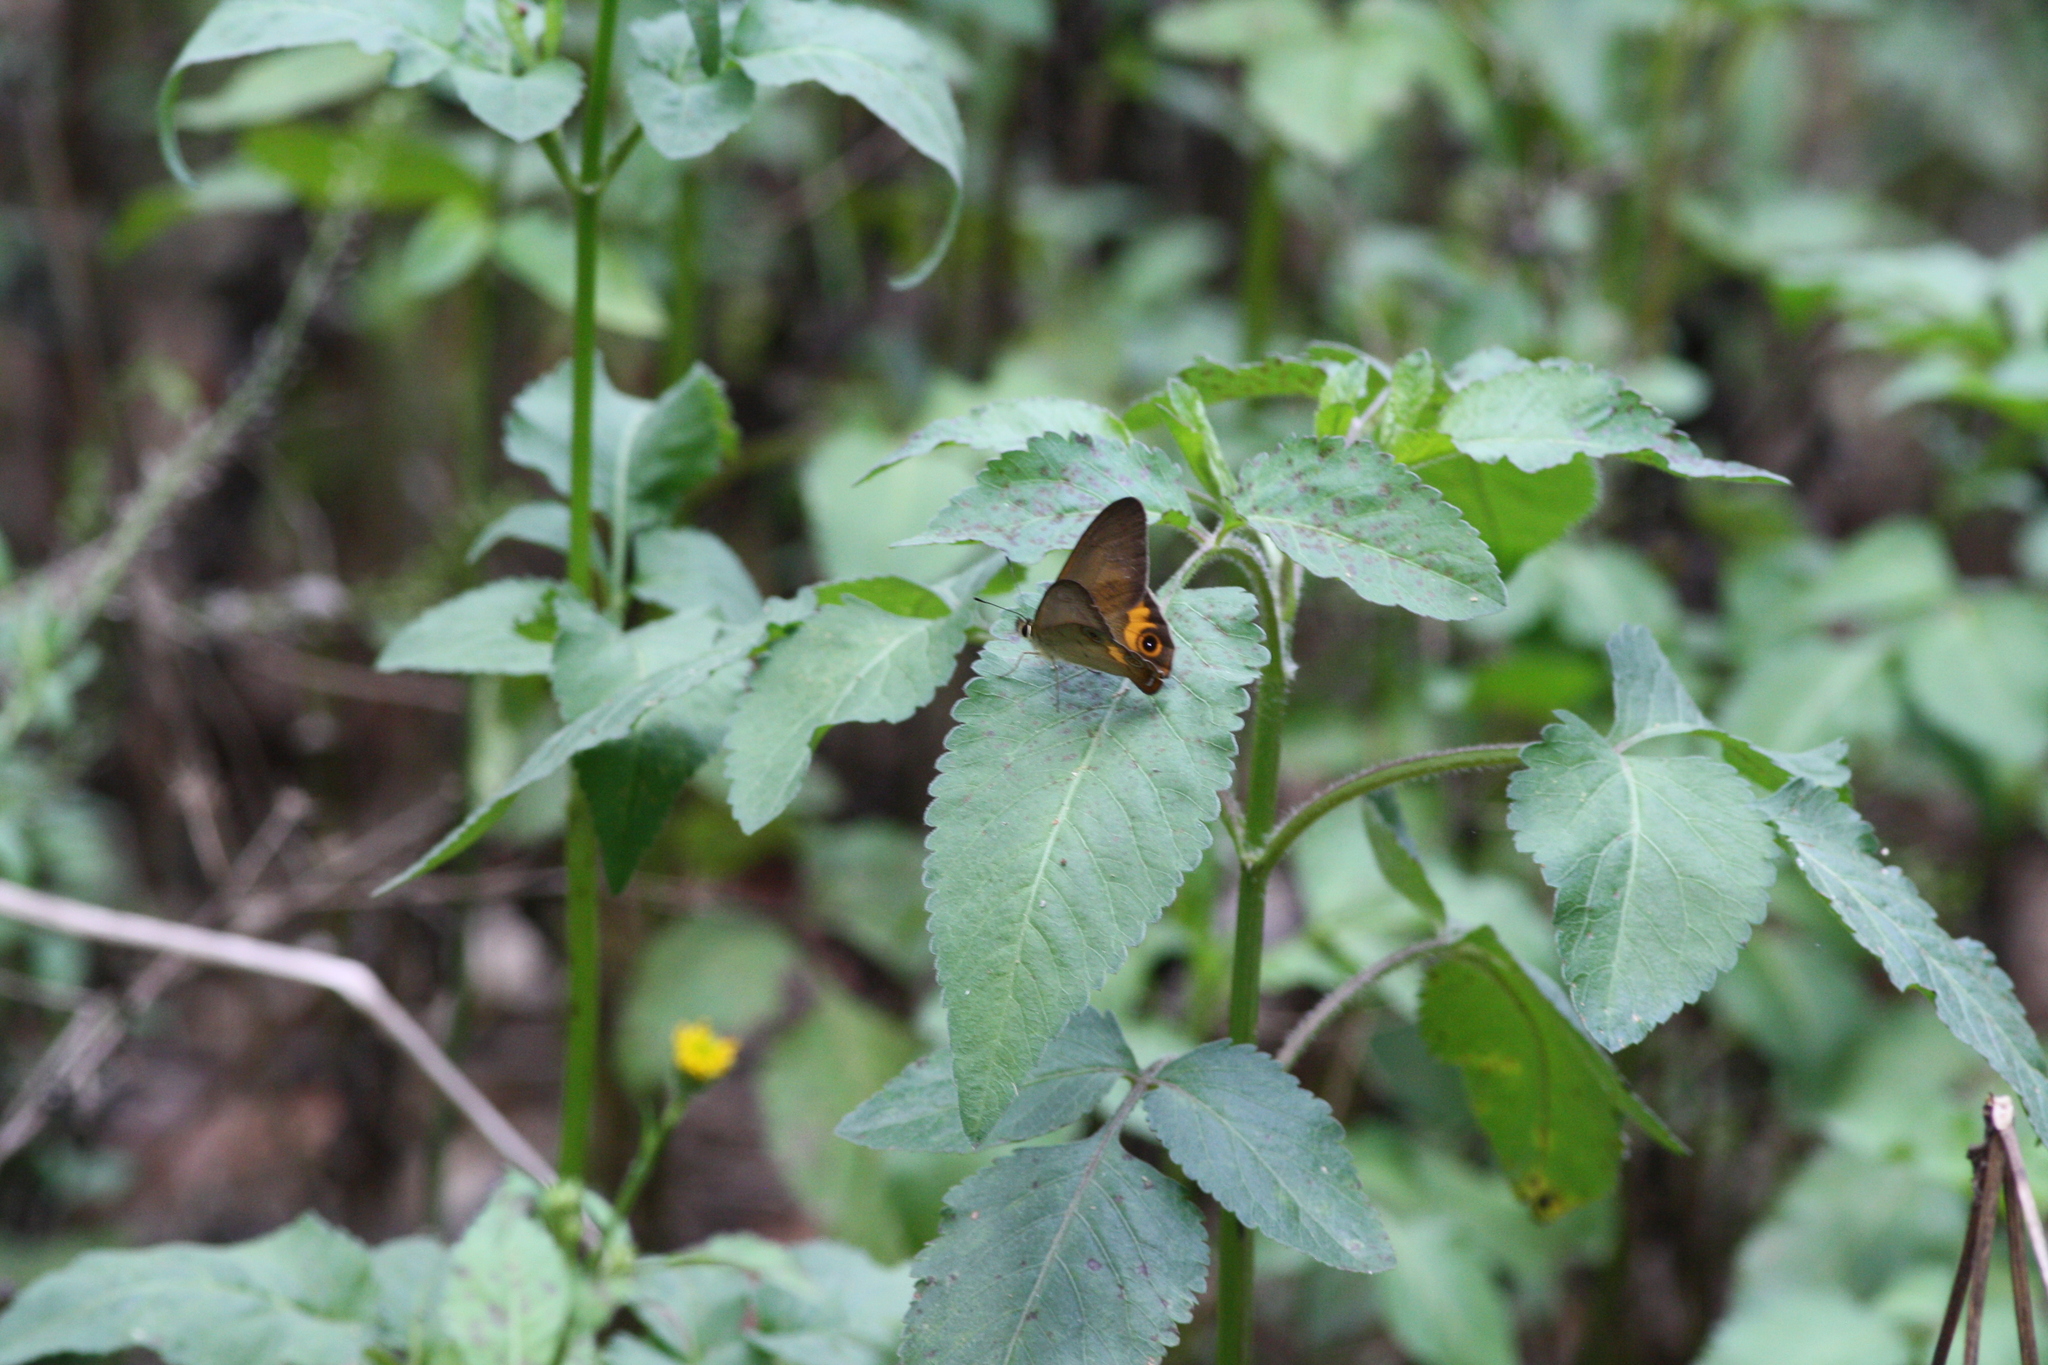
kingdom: Animalia
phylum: Arthropoda
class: Insecta
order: Lepidoptera
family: Nymphalidae
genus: Hypocysta
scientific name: Hypocysta metirius
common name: Brown ringlet
